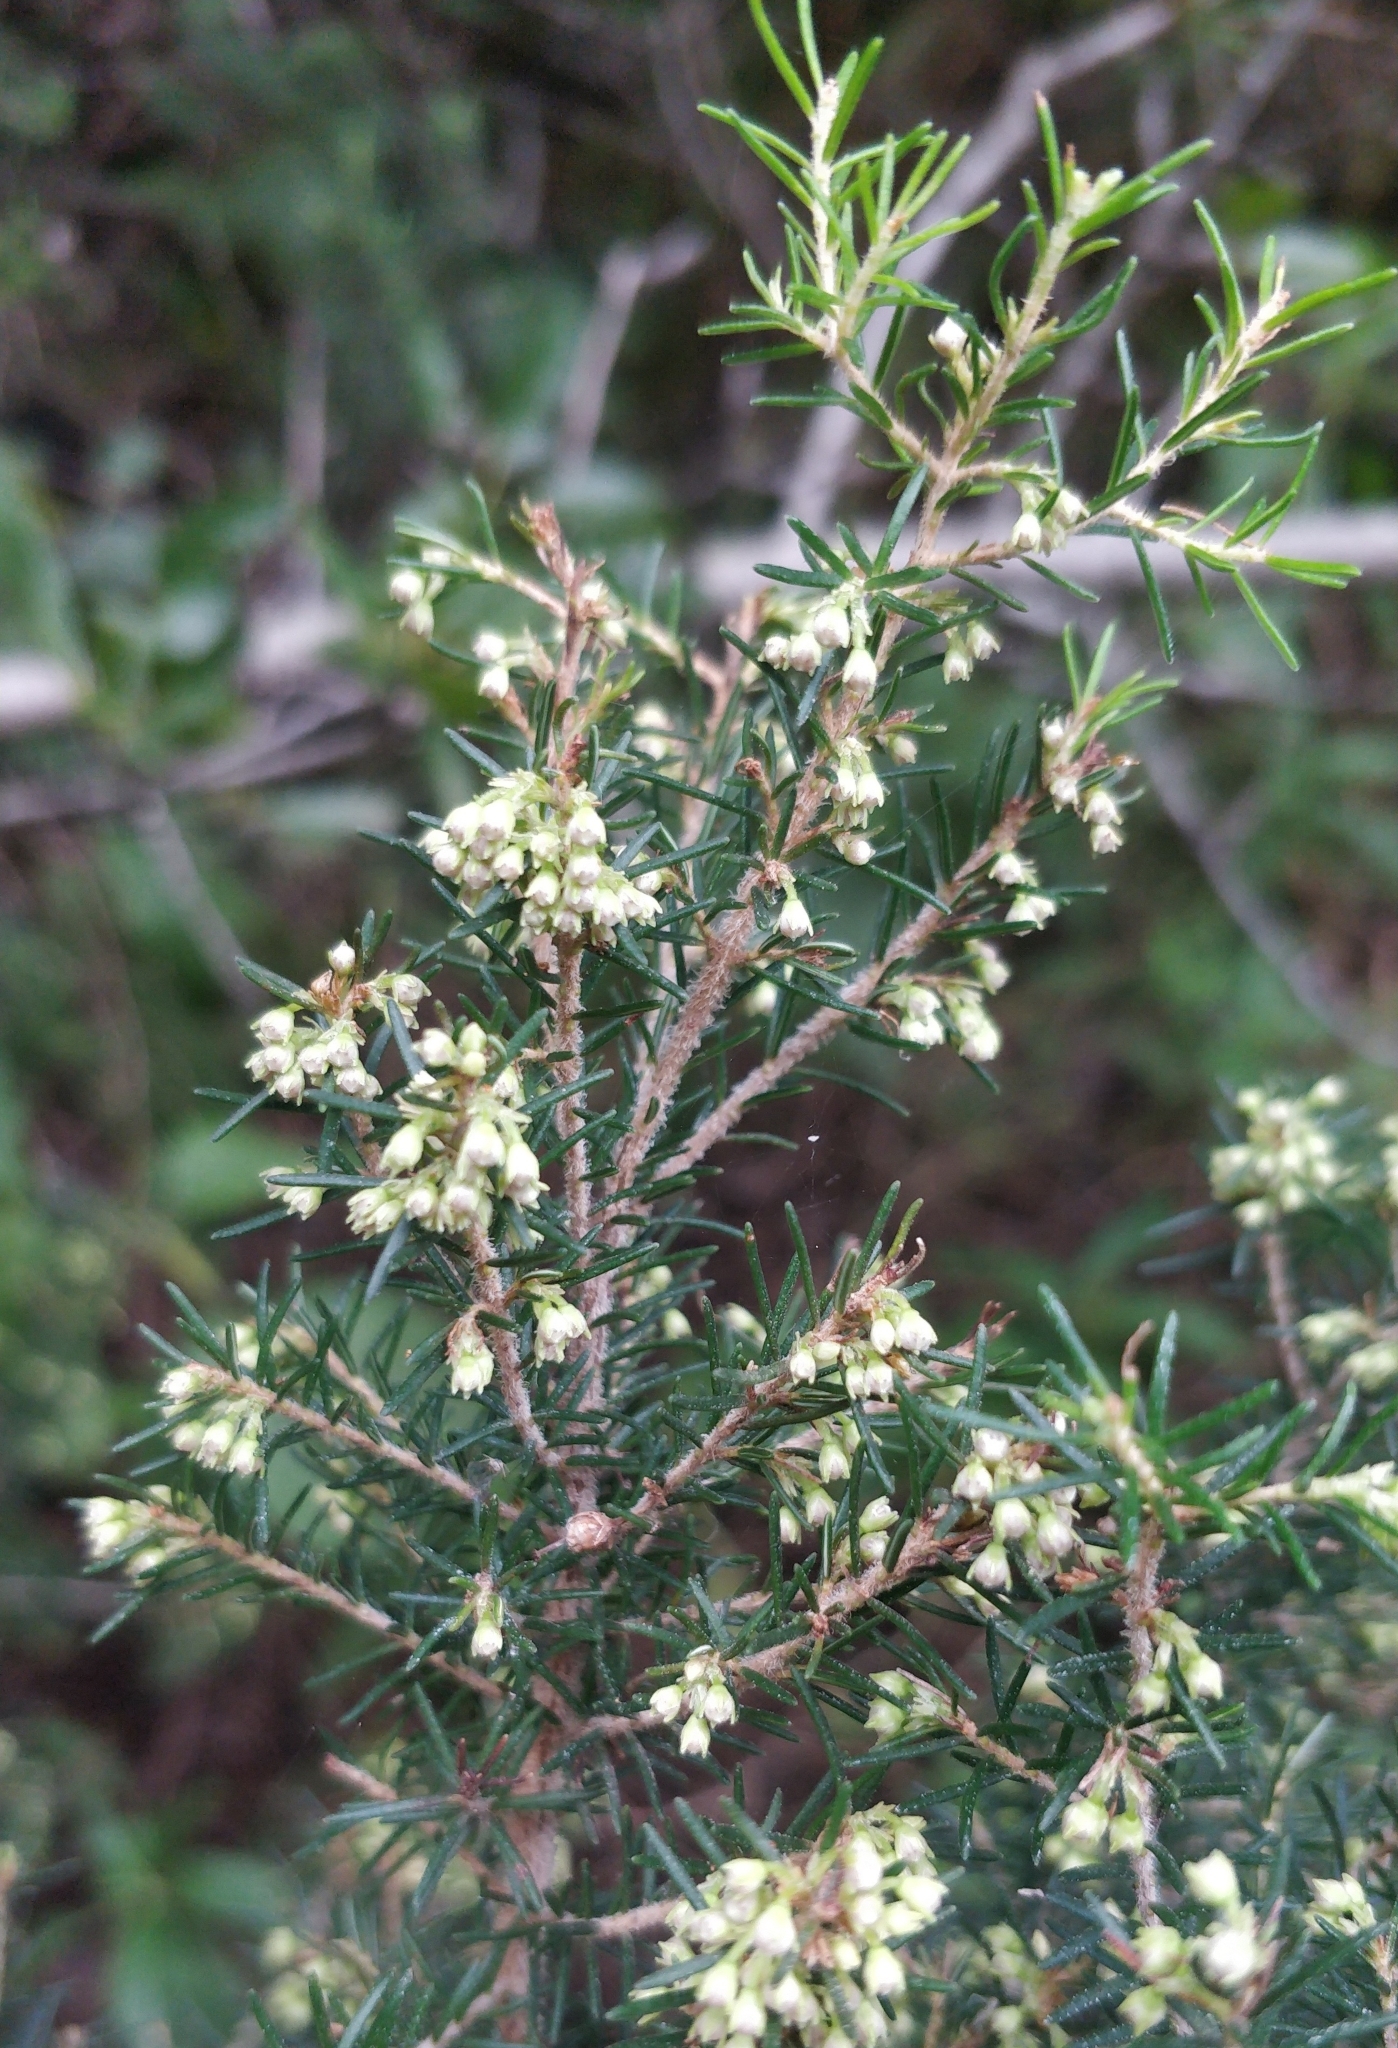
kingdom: Plantae
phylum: Tracheophyta
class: Magnoliopsida
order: Ericales
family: Ericaceae
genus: Erica
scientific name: Erica canariensis
